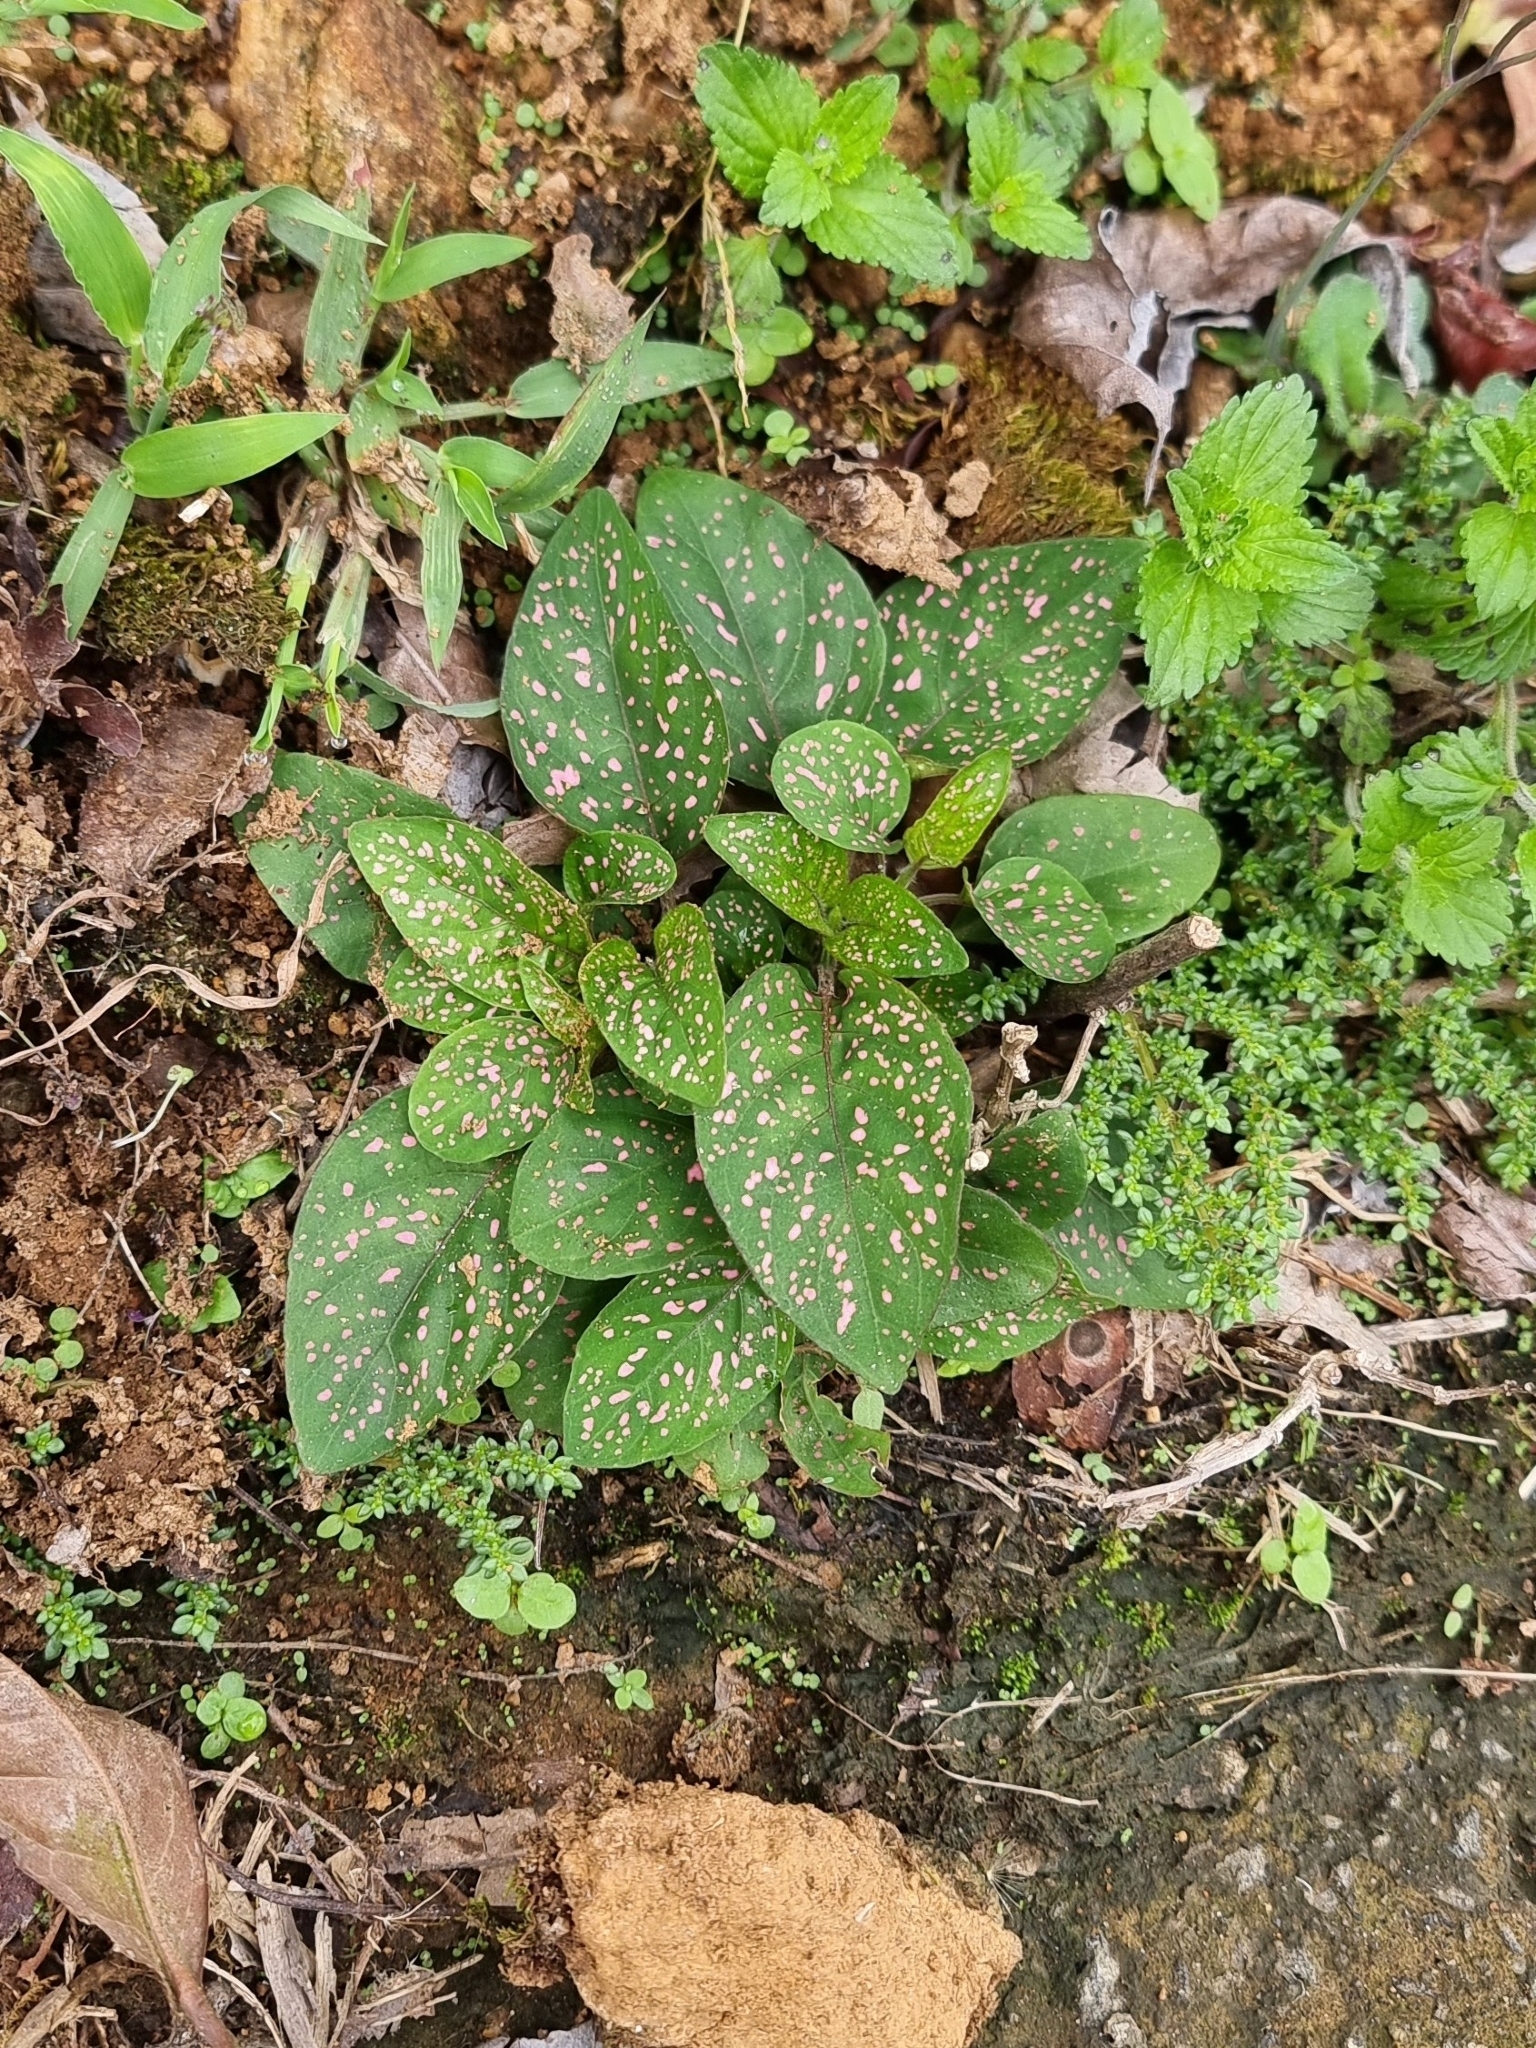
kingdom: Plantae
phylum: Tracheophyta
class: Magnoliopsida
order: Lamiales
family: Acanthaceae
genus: Hypoestes
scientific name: Hypoestes phyllostachya
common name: Polkadot-plant
